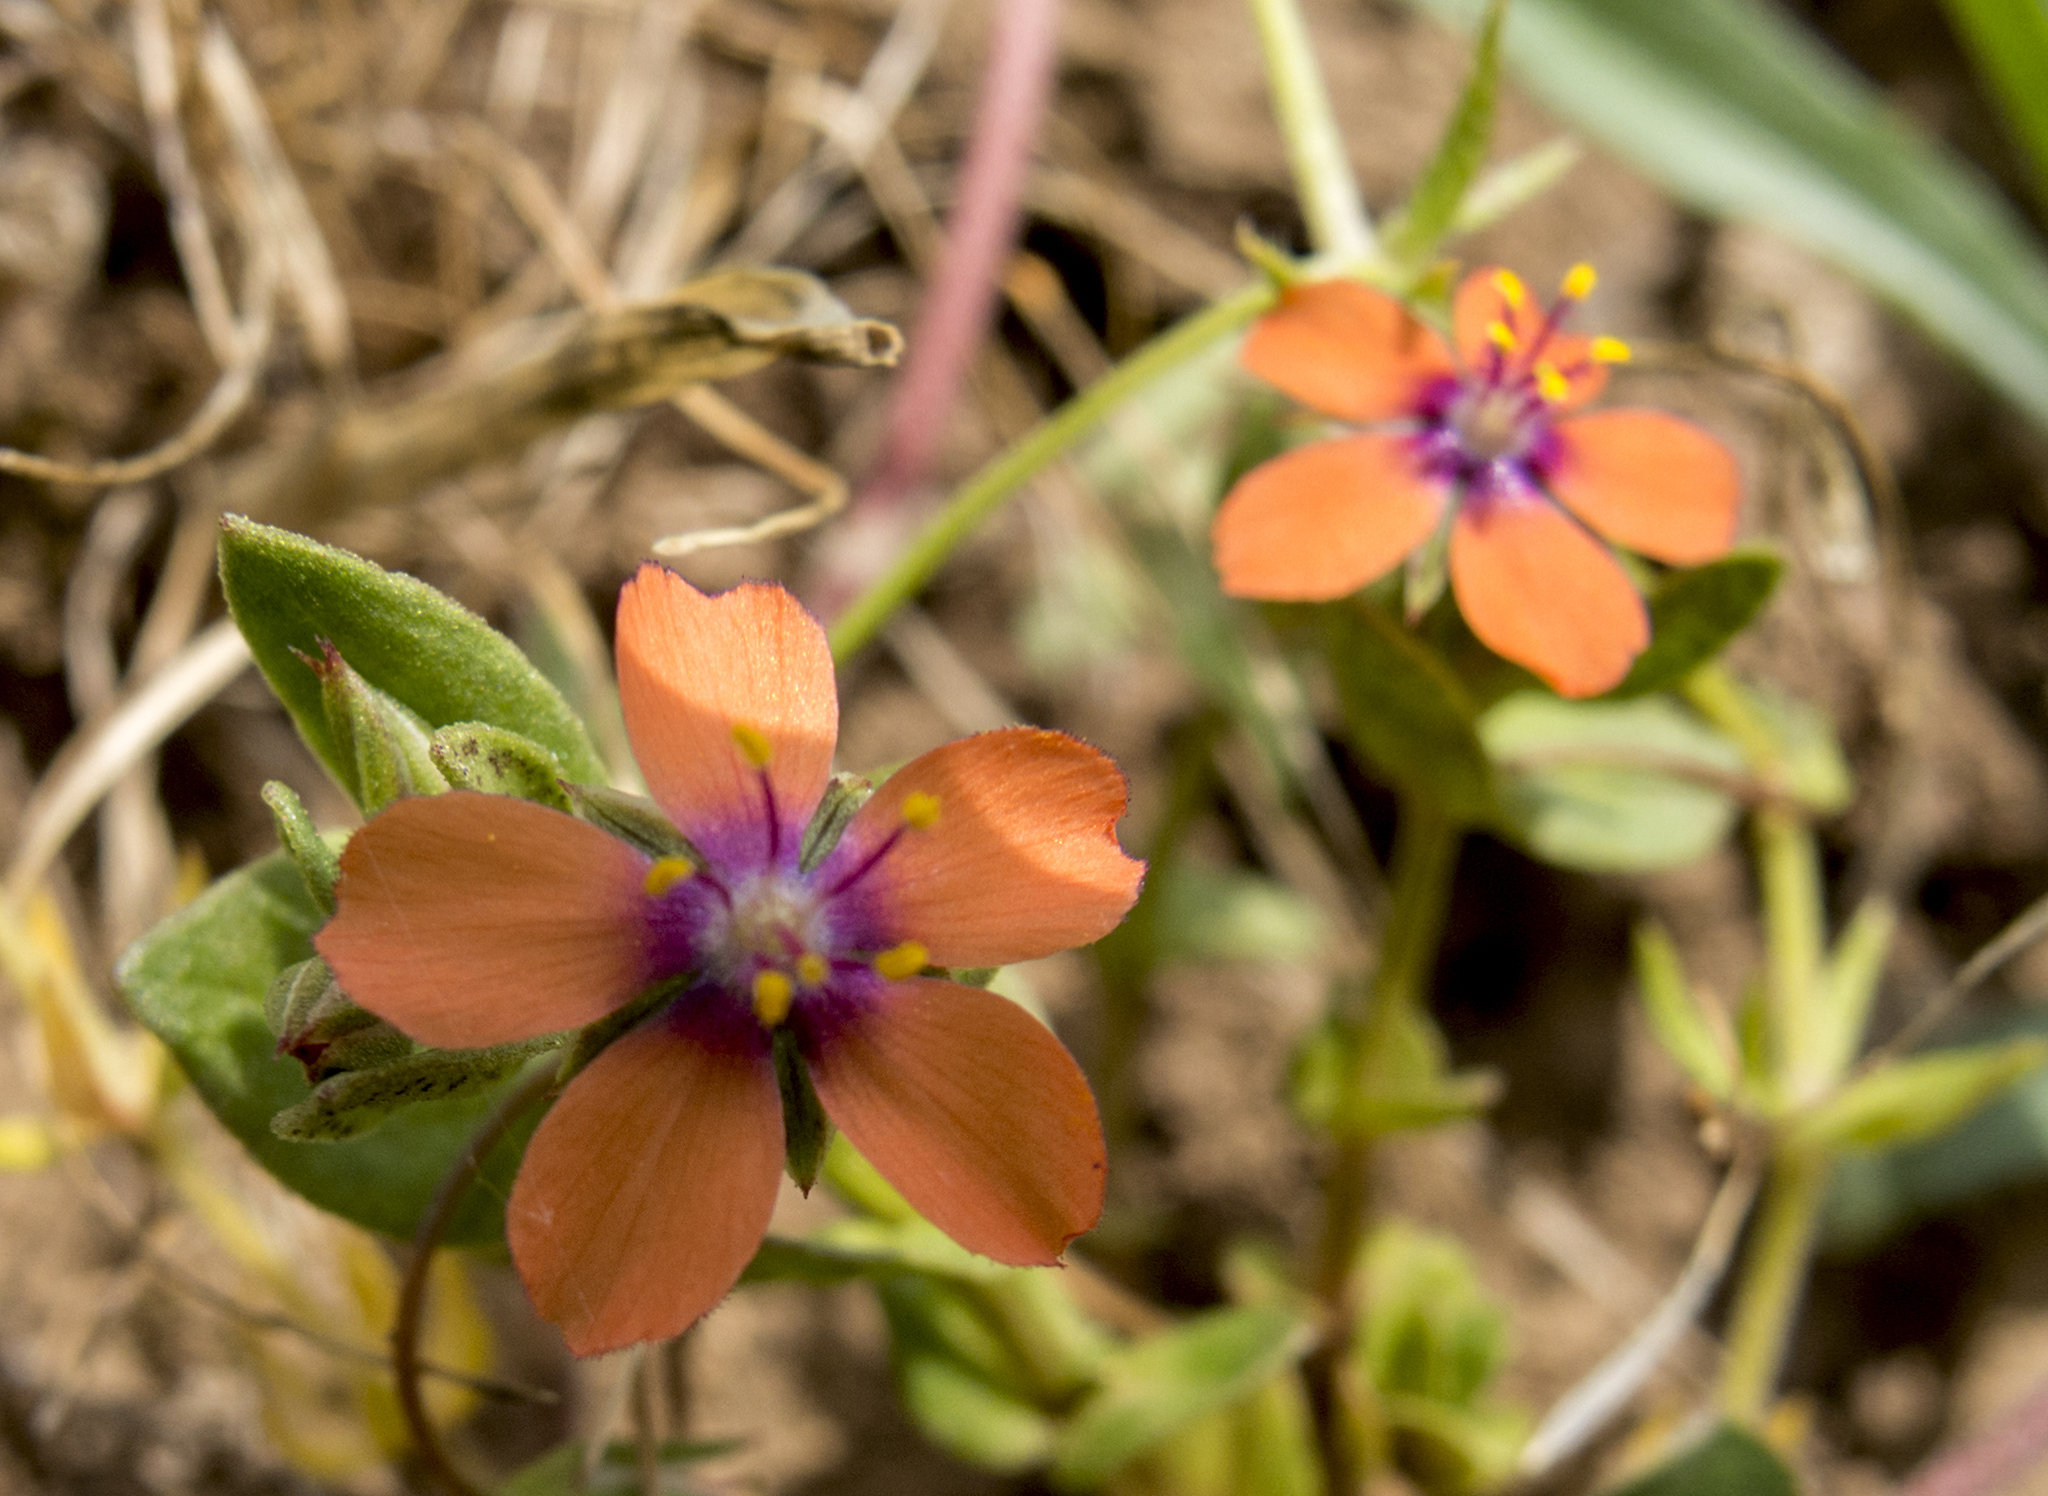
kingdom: Plantae
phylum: Tracheophyta
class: Magnoliopsida
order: Ericales
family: Primulaceae
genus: Lysimachia
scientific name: Lysimachia arvensis
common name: Scarlet pimpernel
